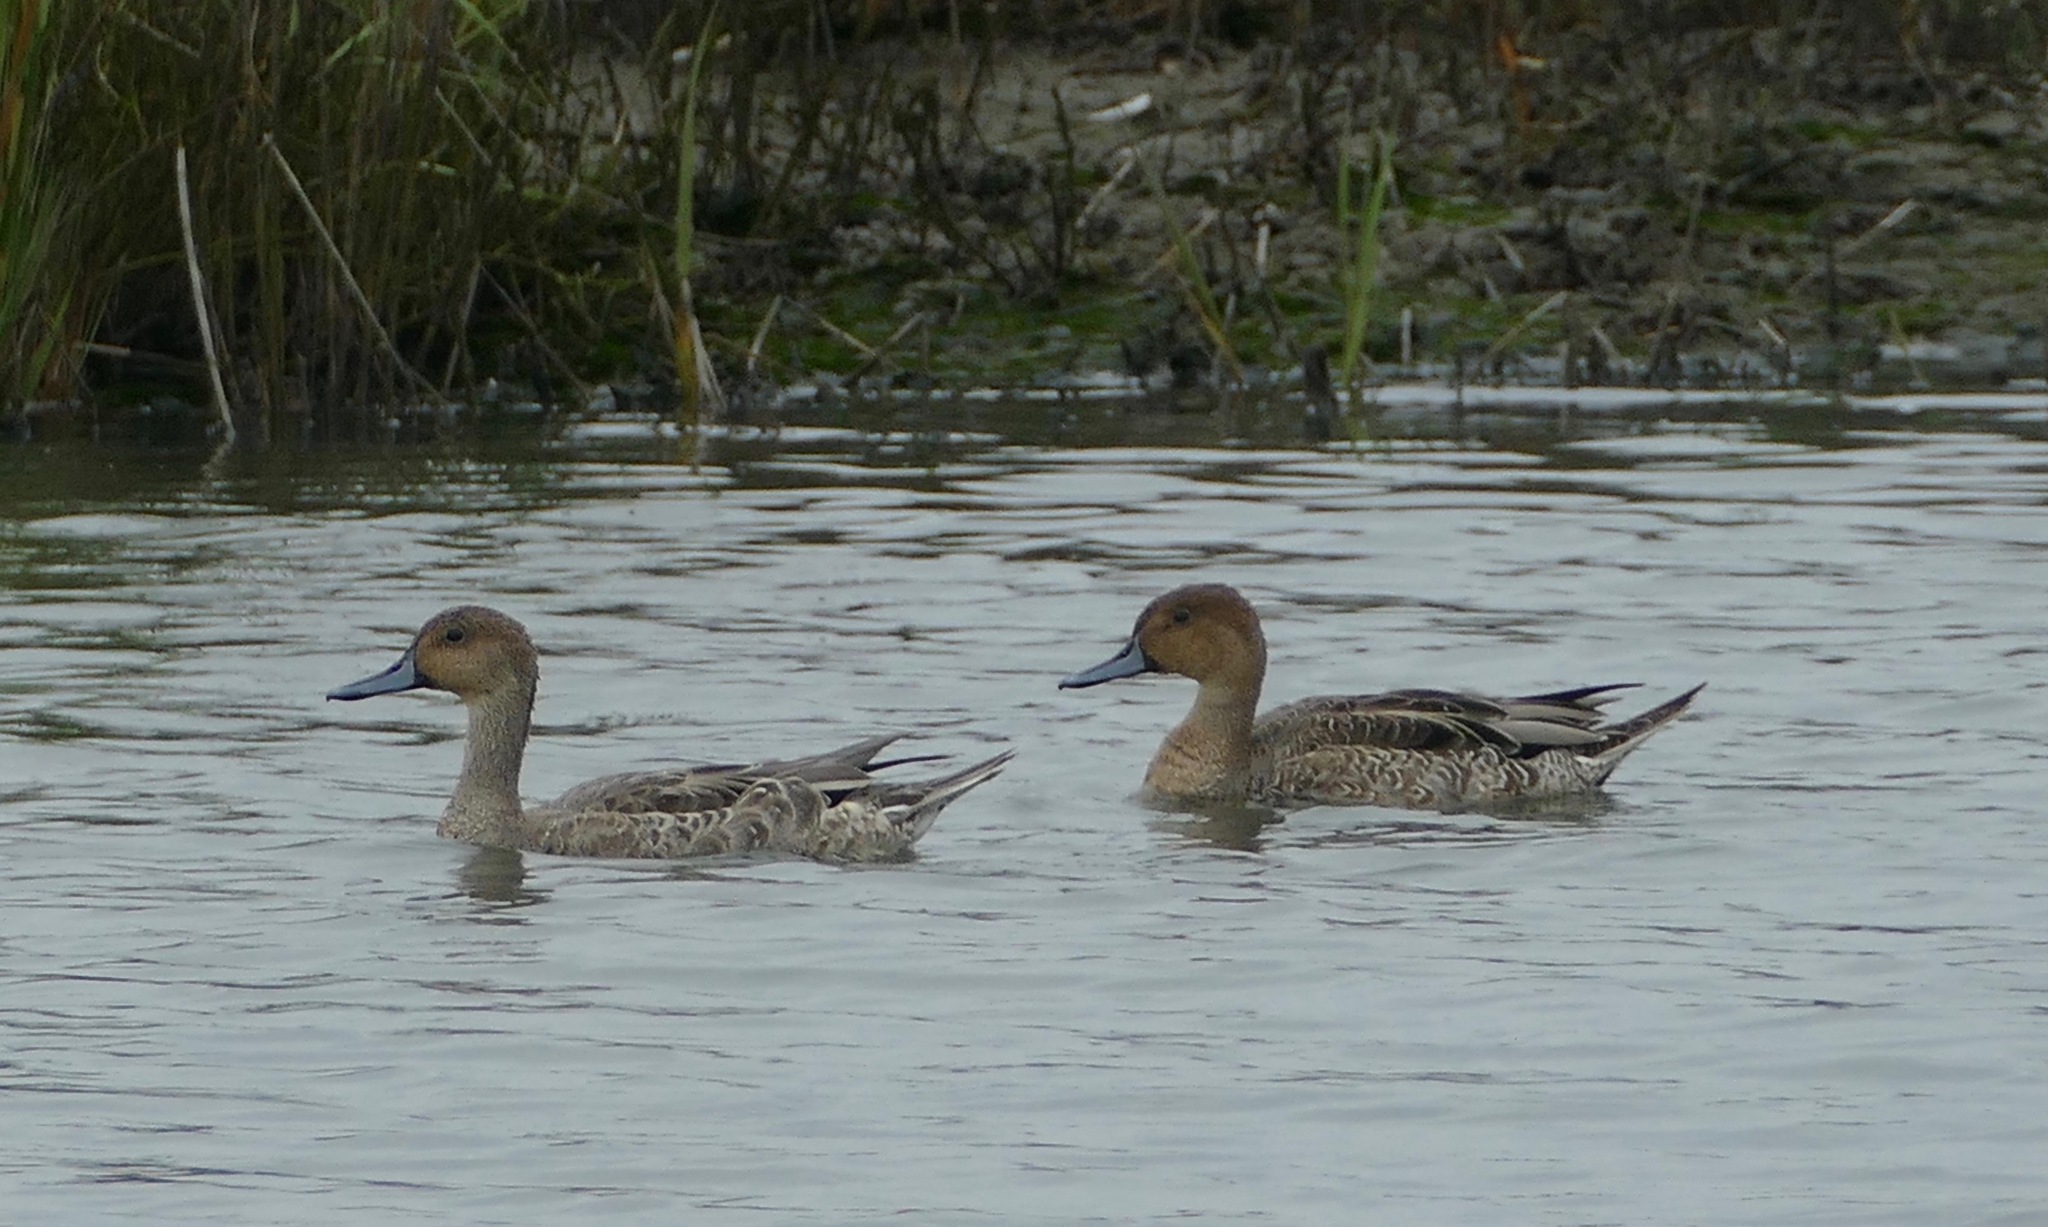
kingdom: Animalia
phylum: Chordata
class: Aves
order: Anseriformes
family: Anatidae
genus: Anas
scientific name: Anas acuta
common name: Northern pintail
